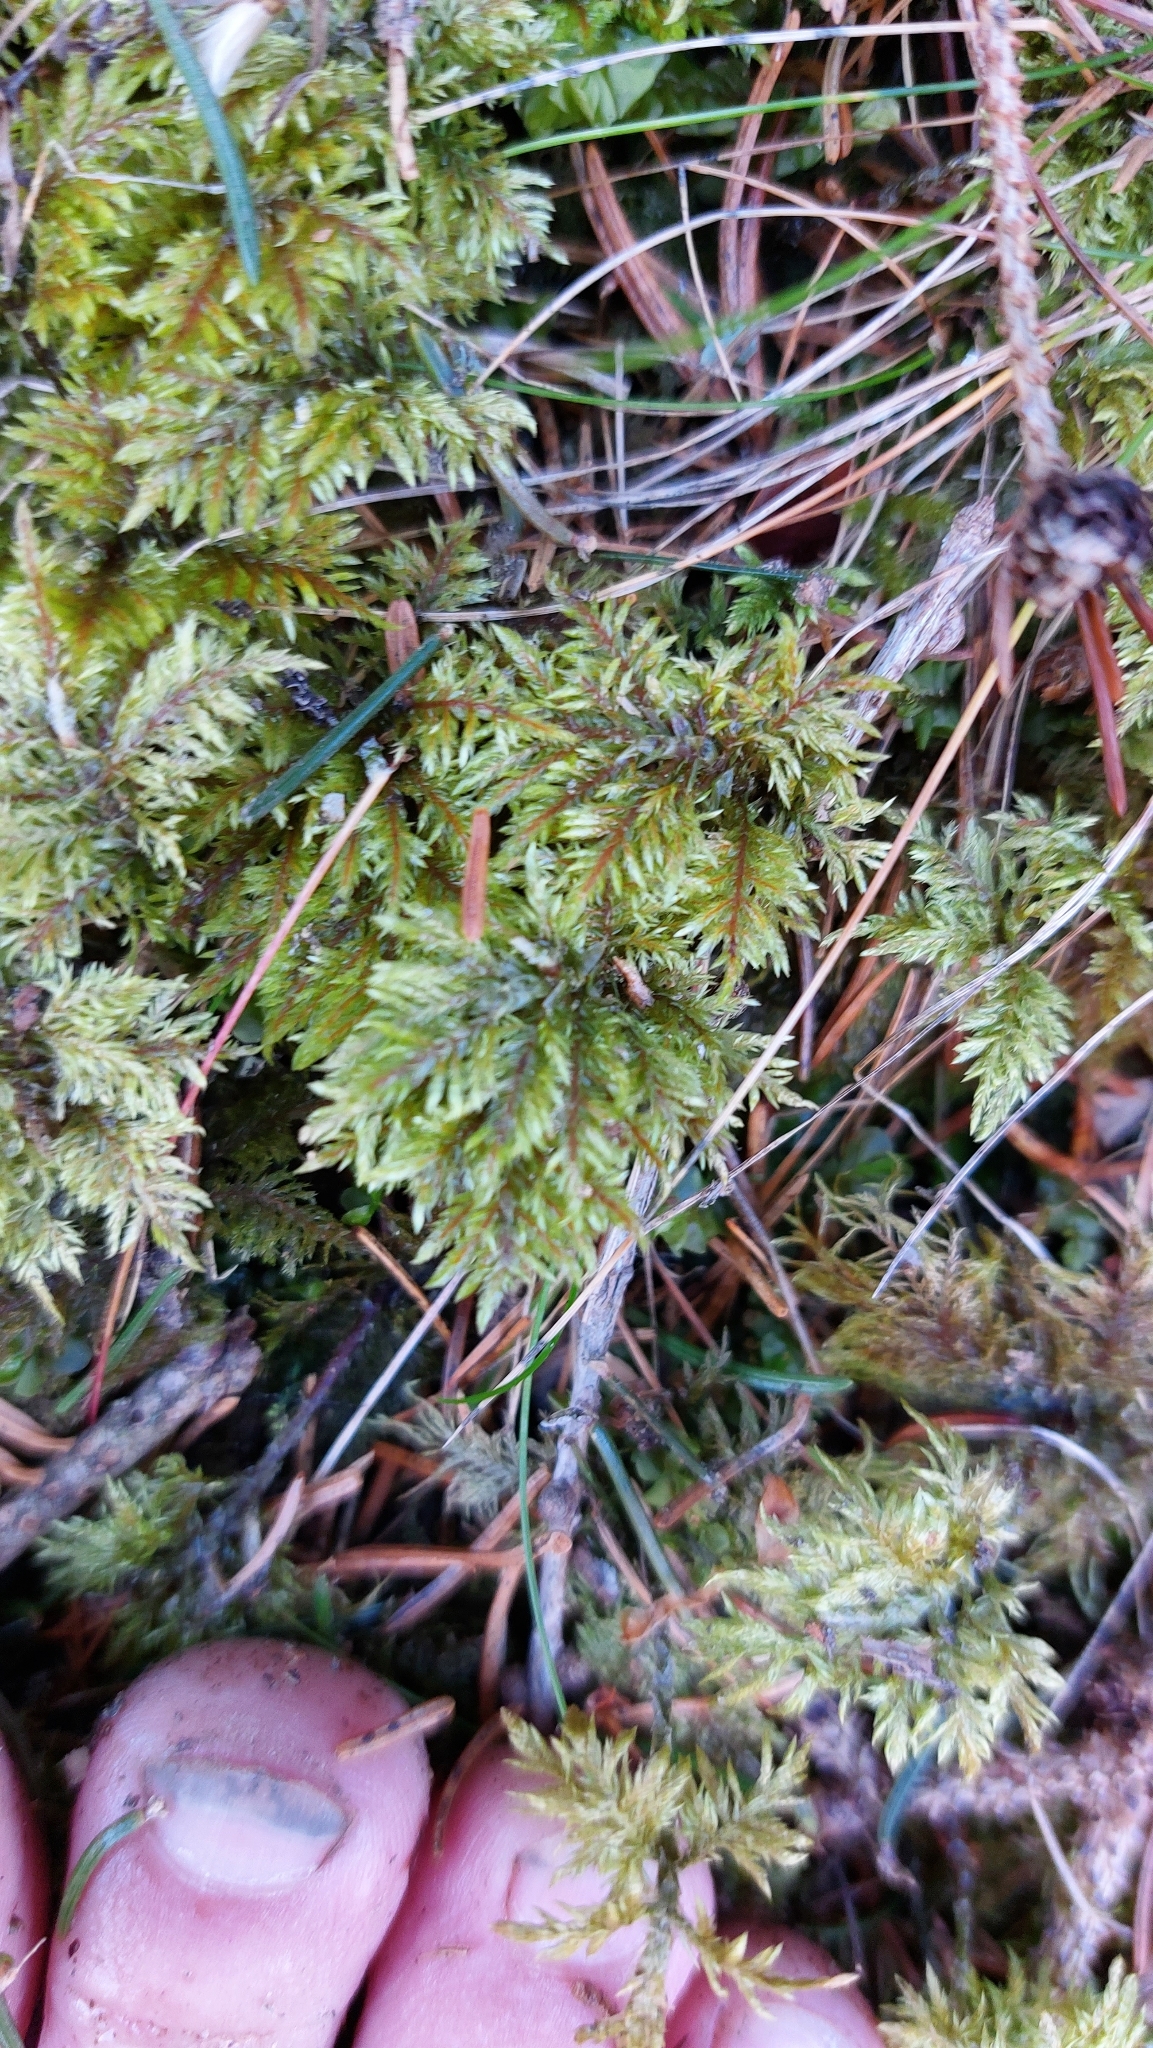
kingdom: Plantae
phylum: Bryophyta
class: Bryopsida
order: Hypnales
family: Hylocomiaceae
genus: Hylocomium
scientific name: Hylocomium splendens
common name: Stairstep moss
